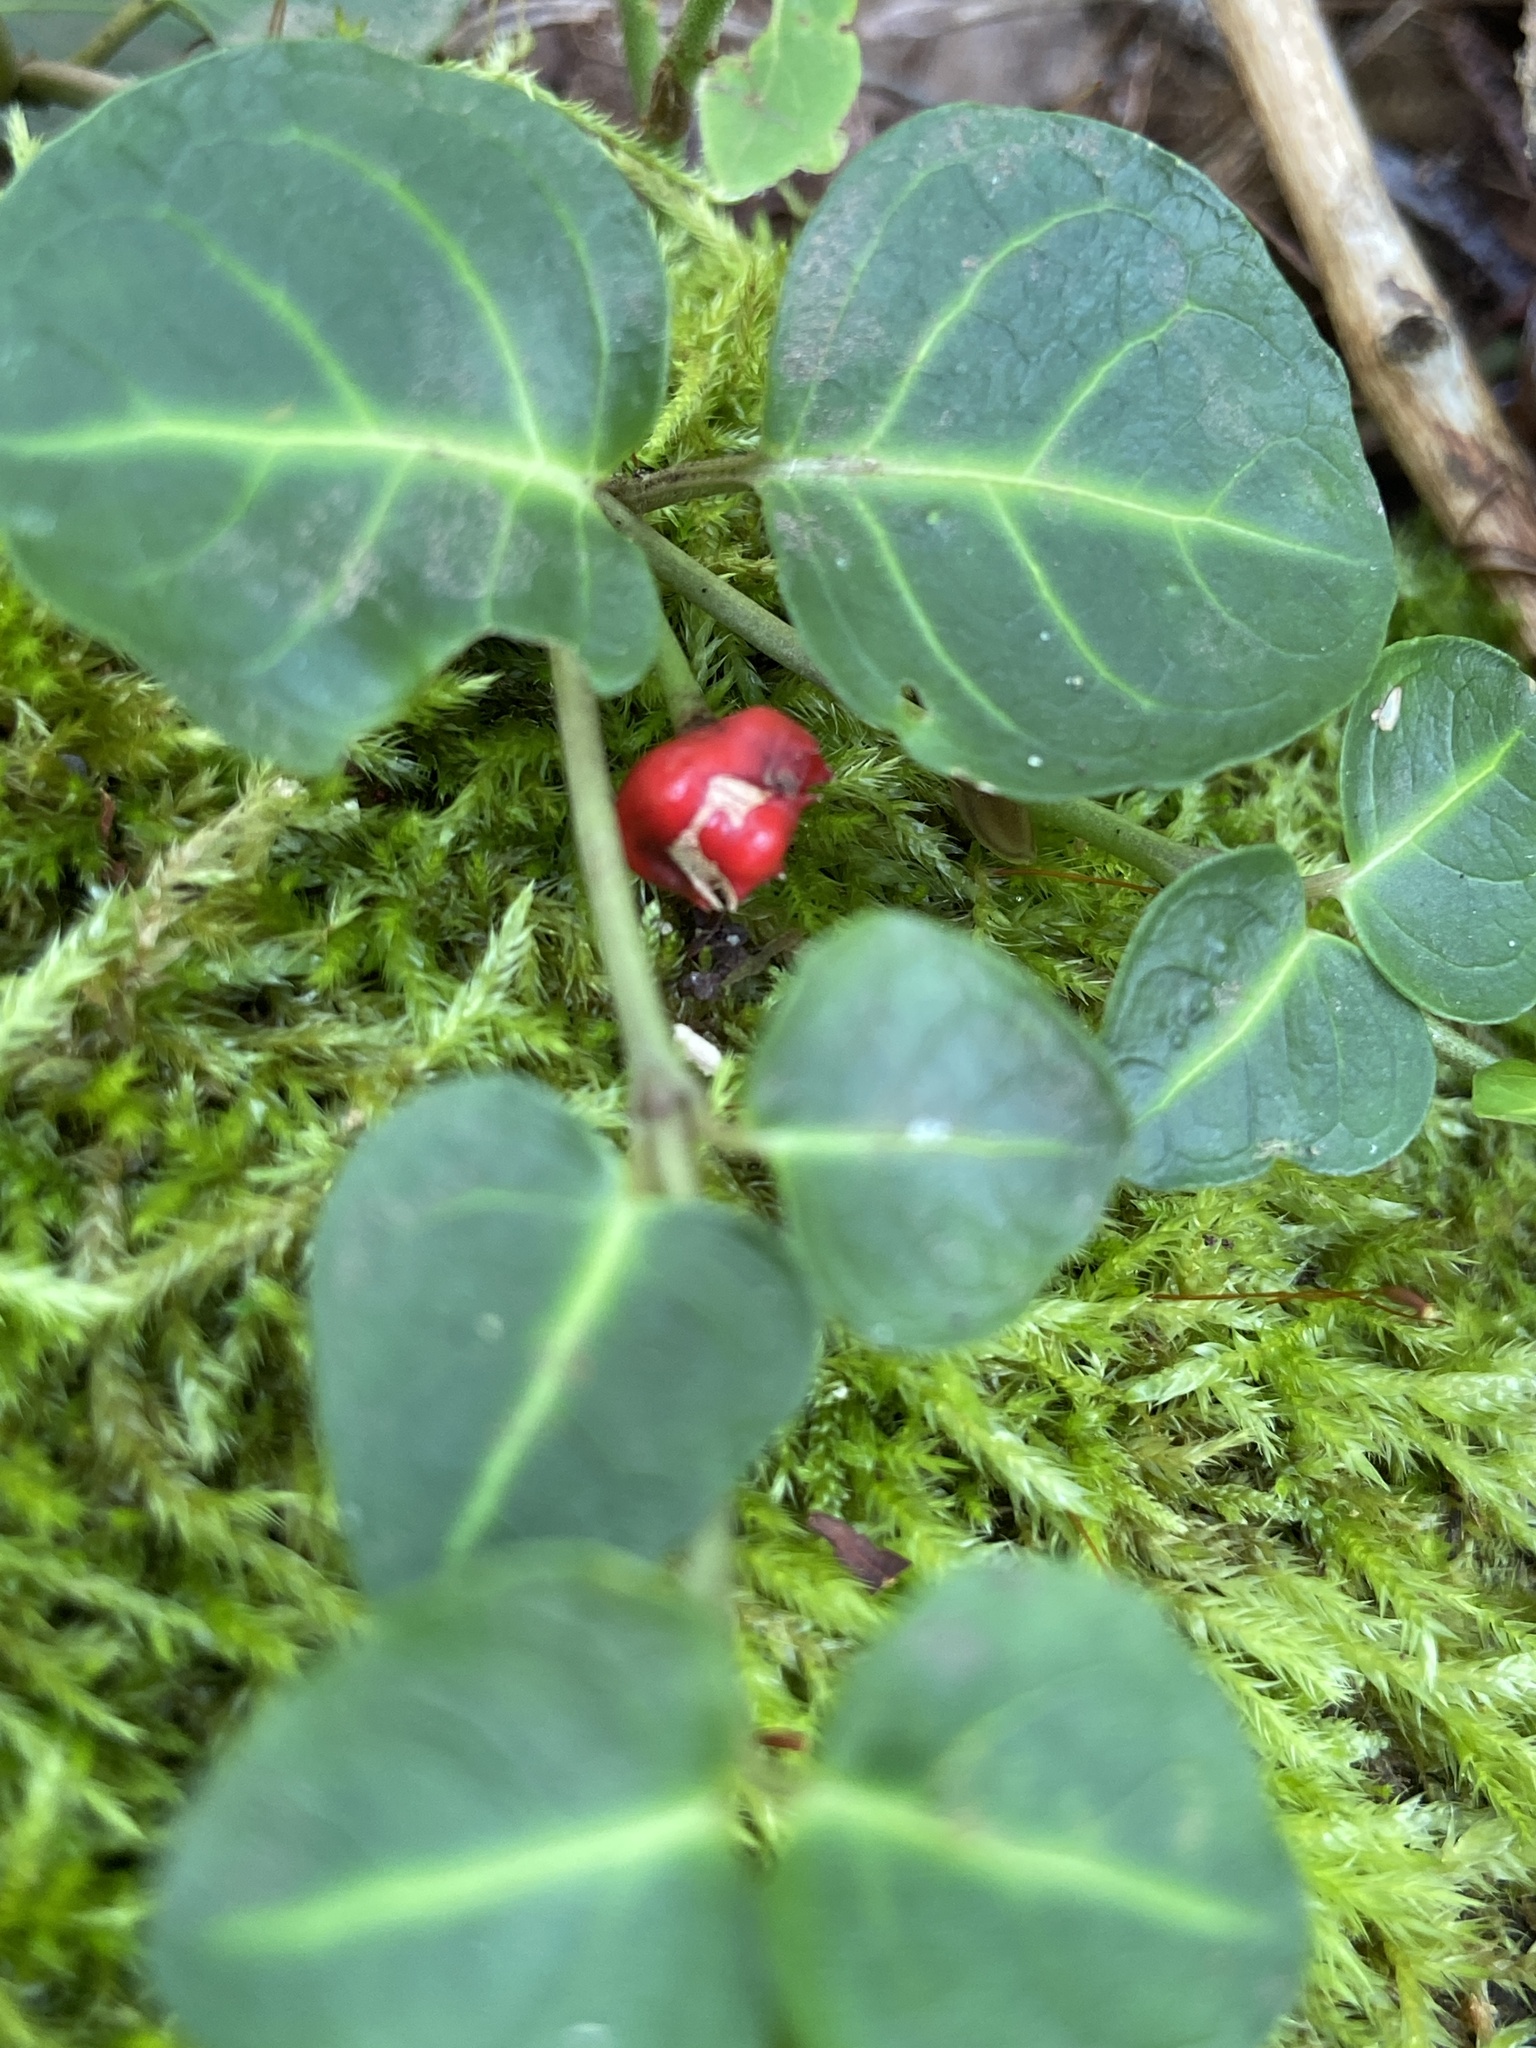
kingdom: Plantae
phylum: Tracheophyta
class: Magnoliopsida
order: Gentianales
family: Rubiaceae
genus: Mitchella
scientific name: Mitchella repens
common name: Partridge-berry
